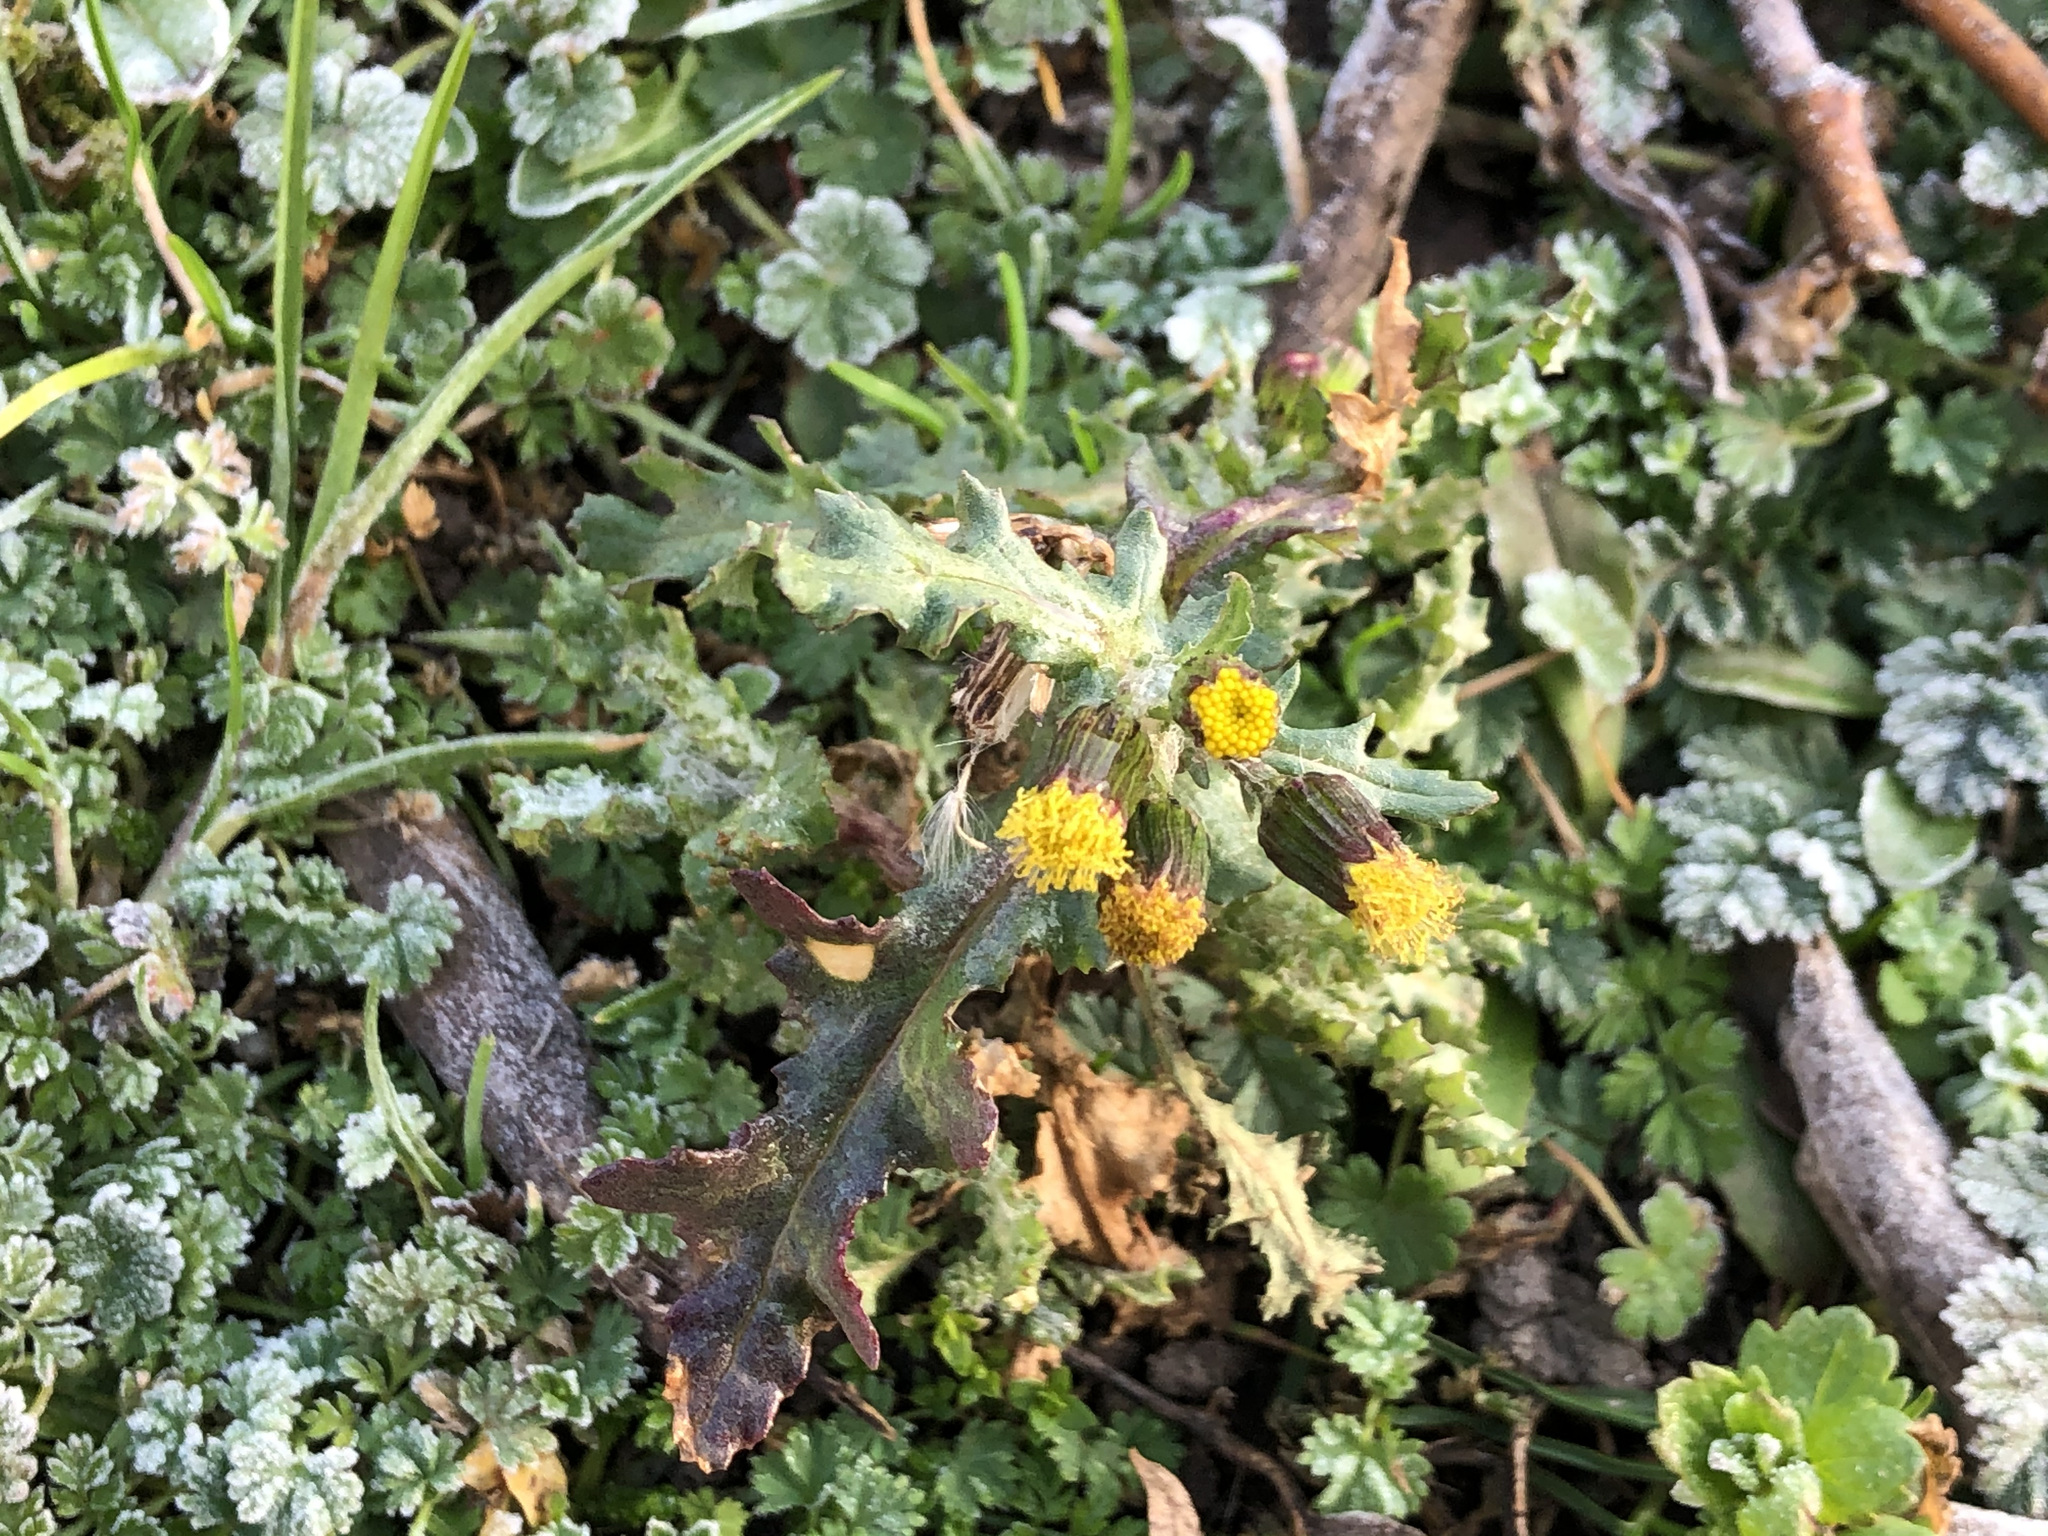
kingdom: Plantae
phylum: Tracheophyta
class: Magnoliopsida
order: Asterales
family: Asteraceae
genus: Senecio
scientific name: Senecio vulgaris
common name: Old-man-in-the-spring
